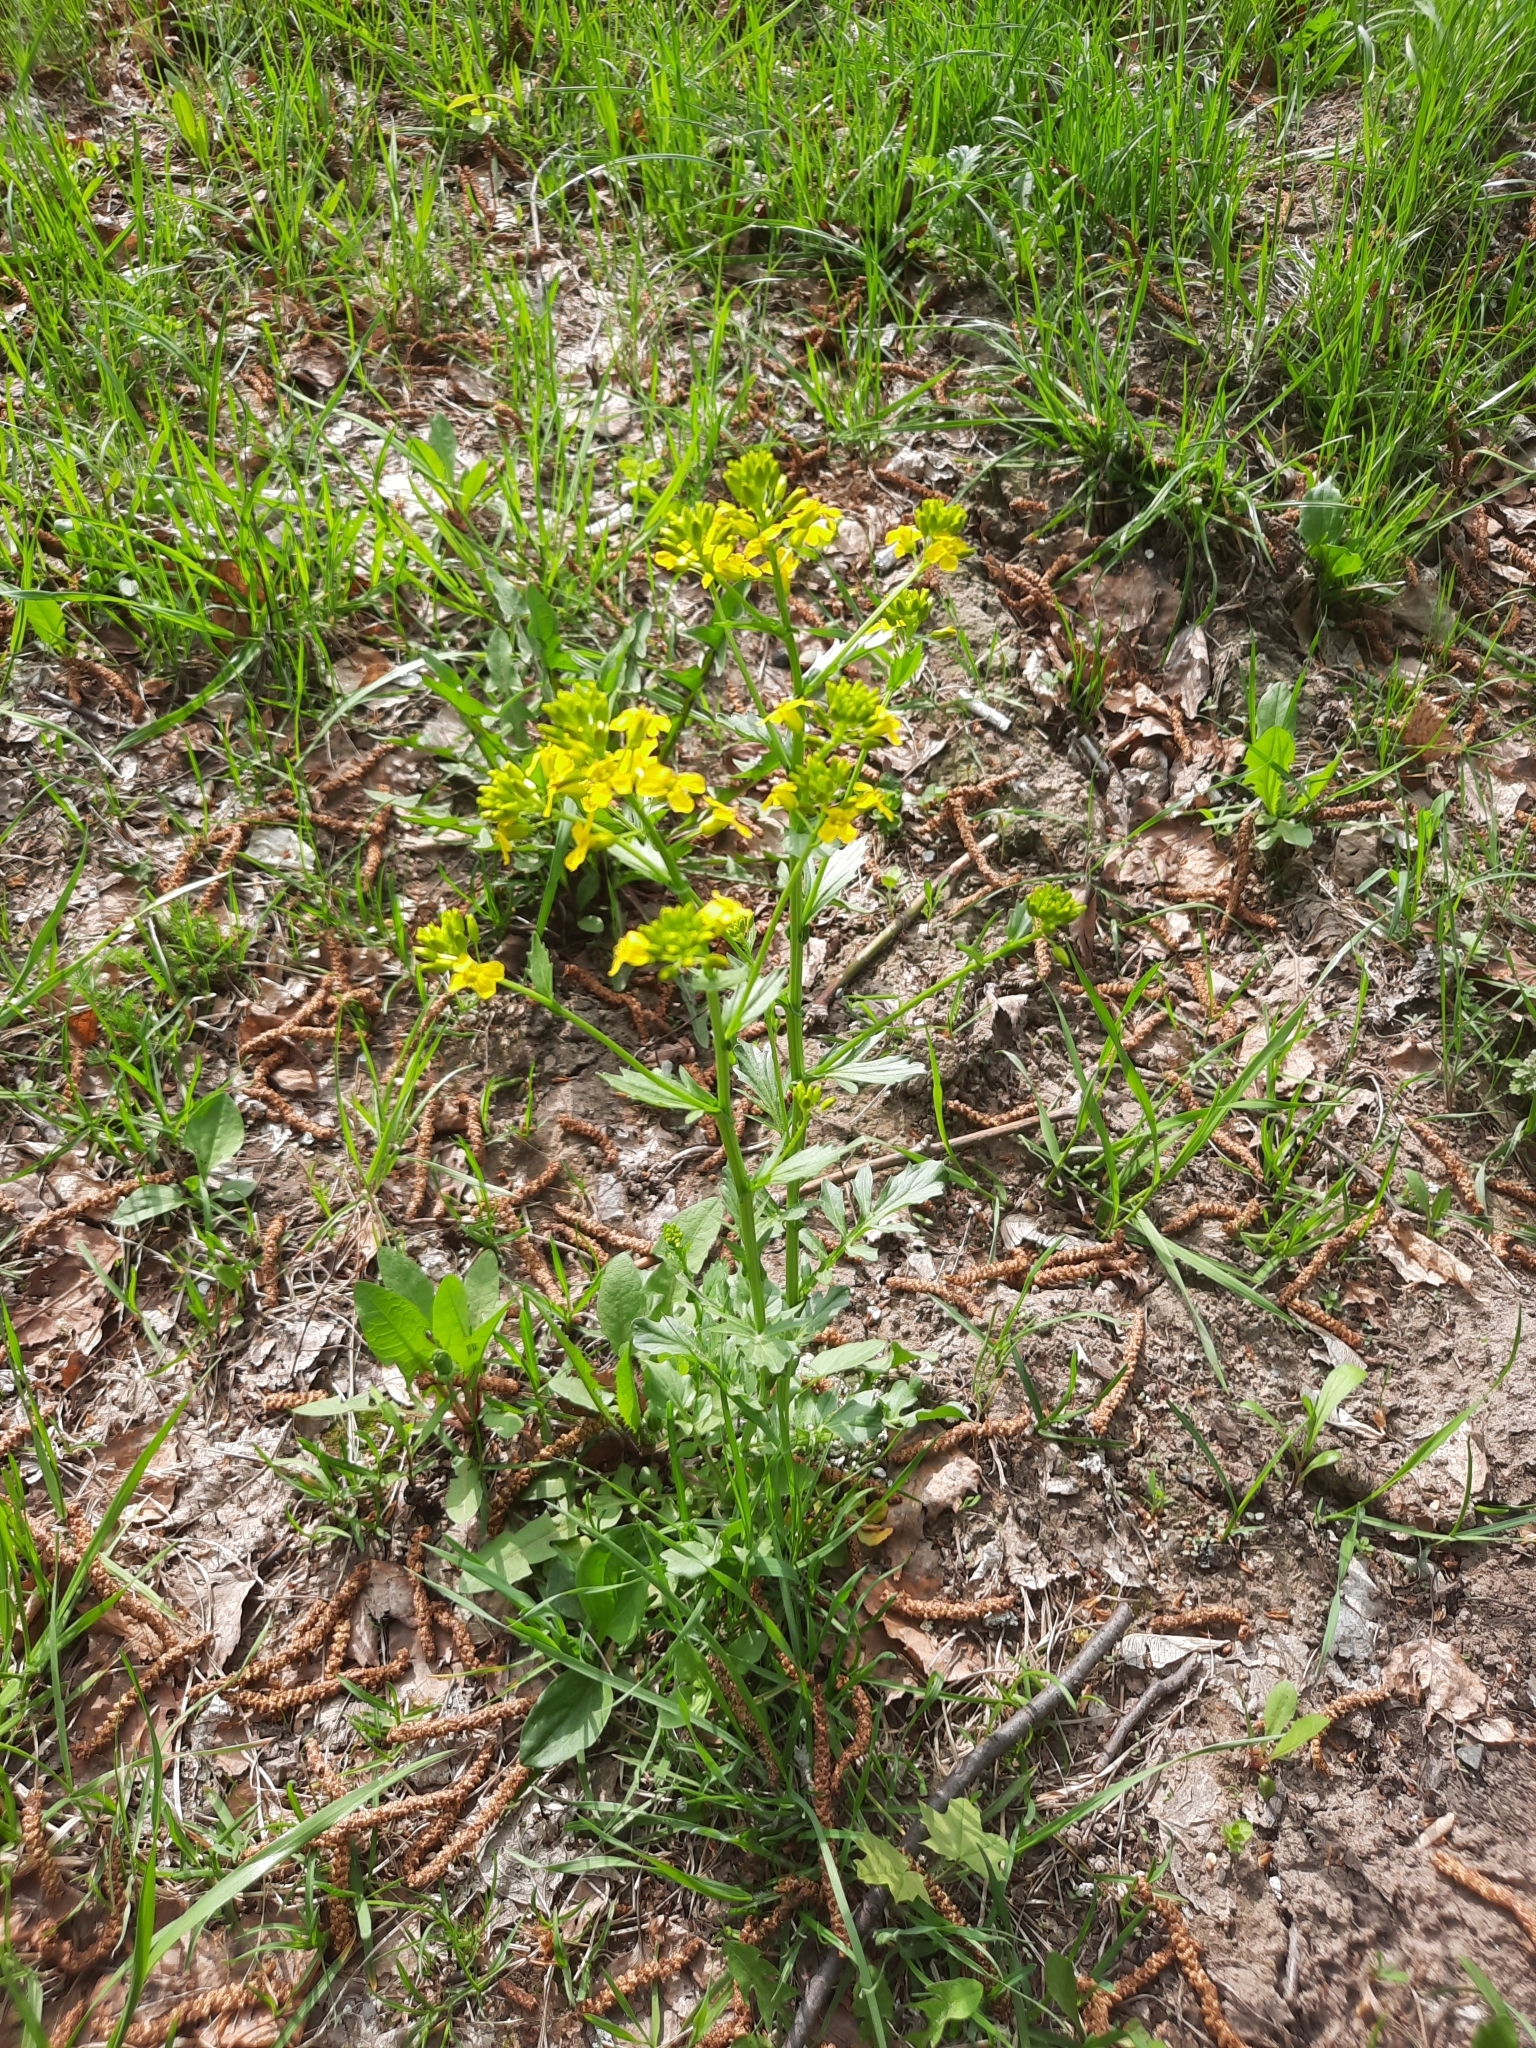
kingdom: Plantae
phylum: Tracheophyta
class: Magnoliopsida
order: Brassicales
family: Brassicaceae
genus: Barbarea
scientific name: Barbarea vulgaris
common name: Cressy-greens
